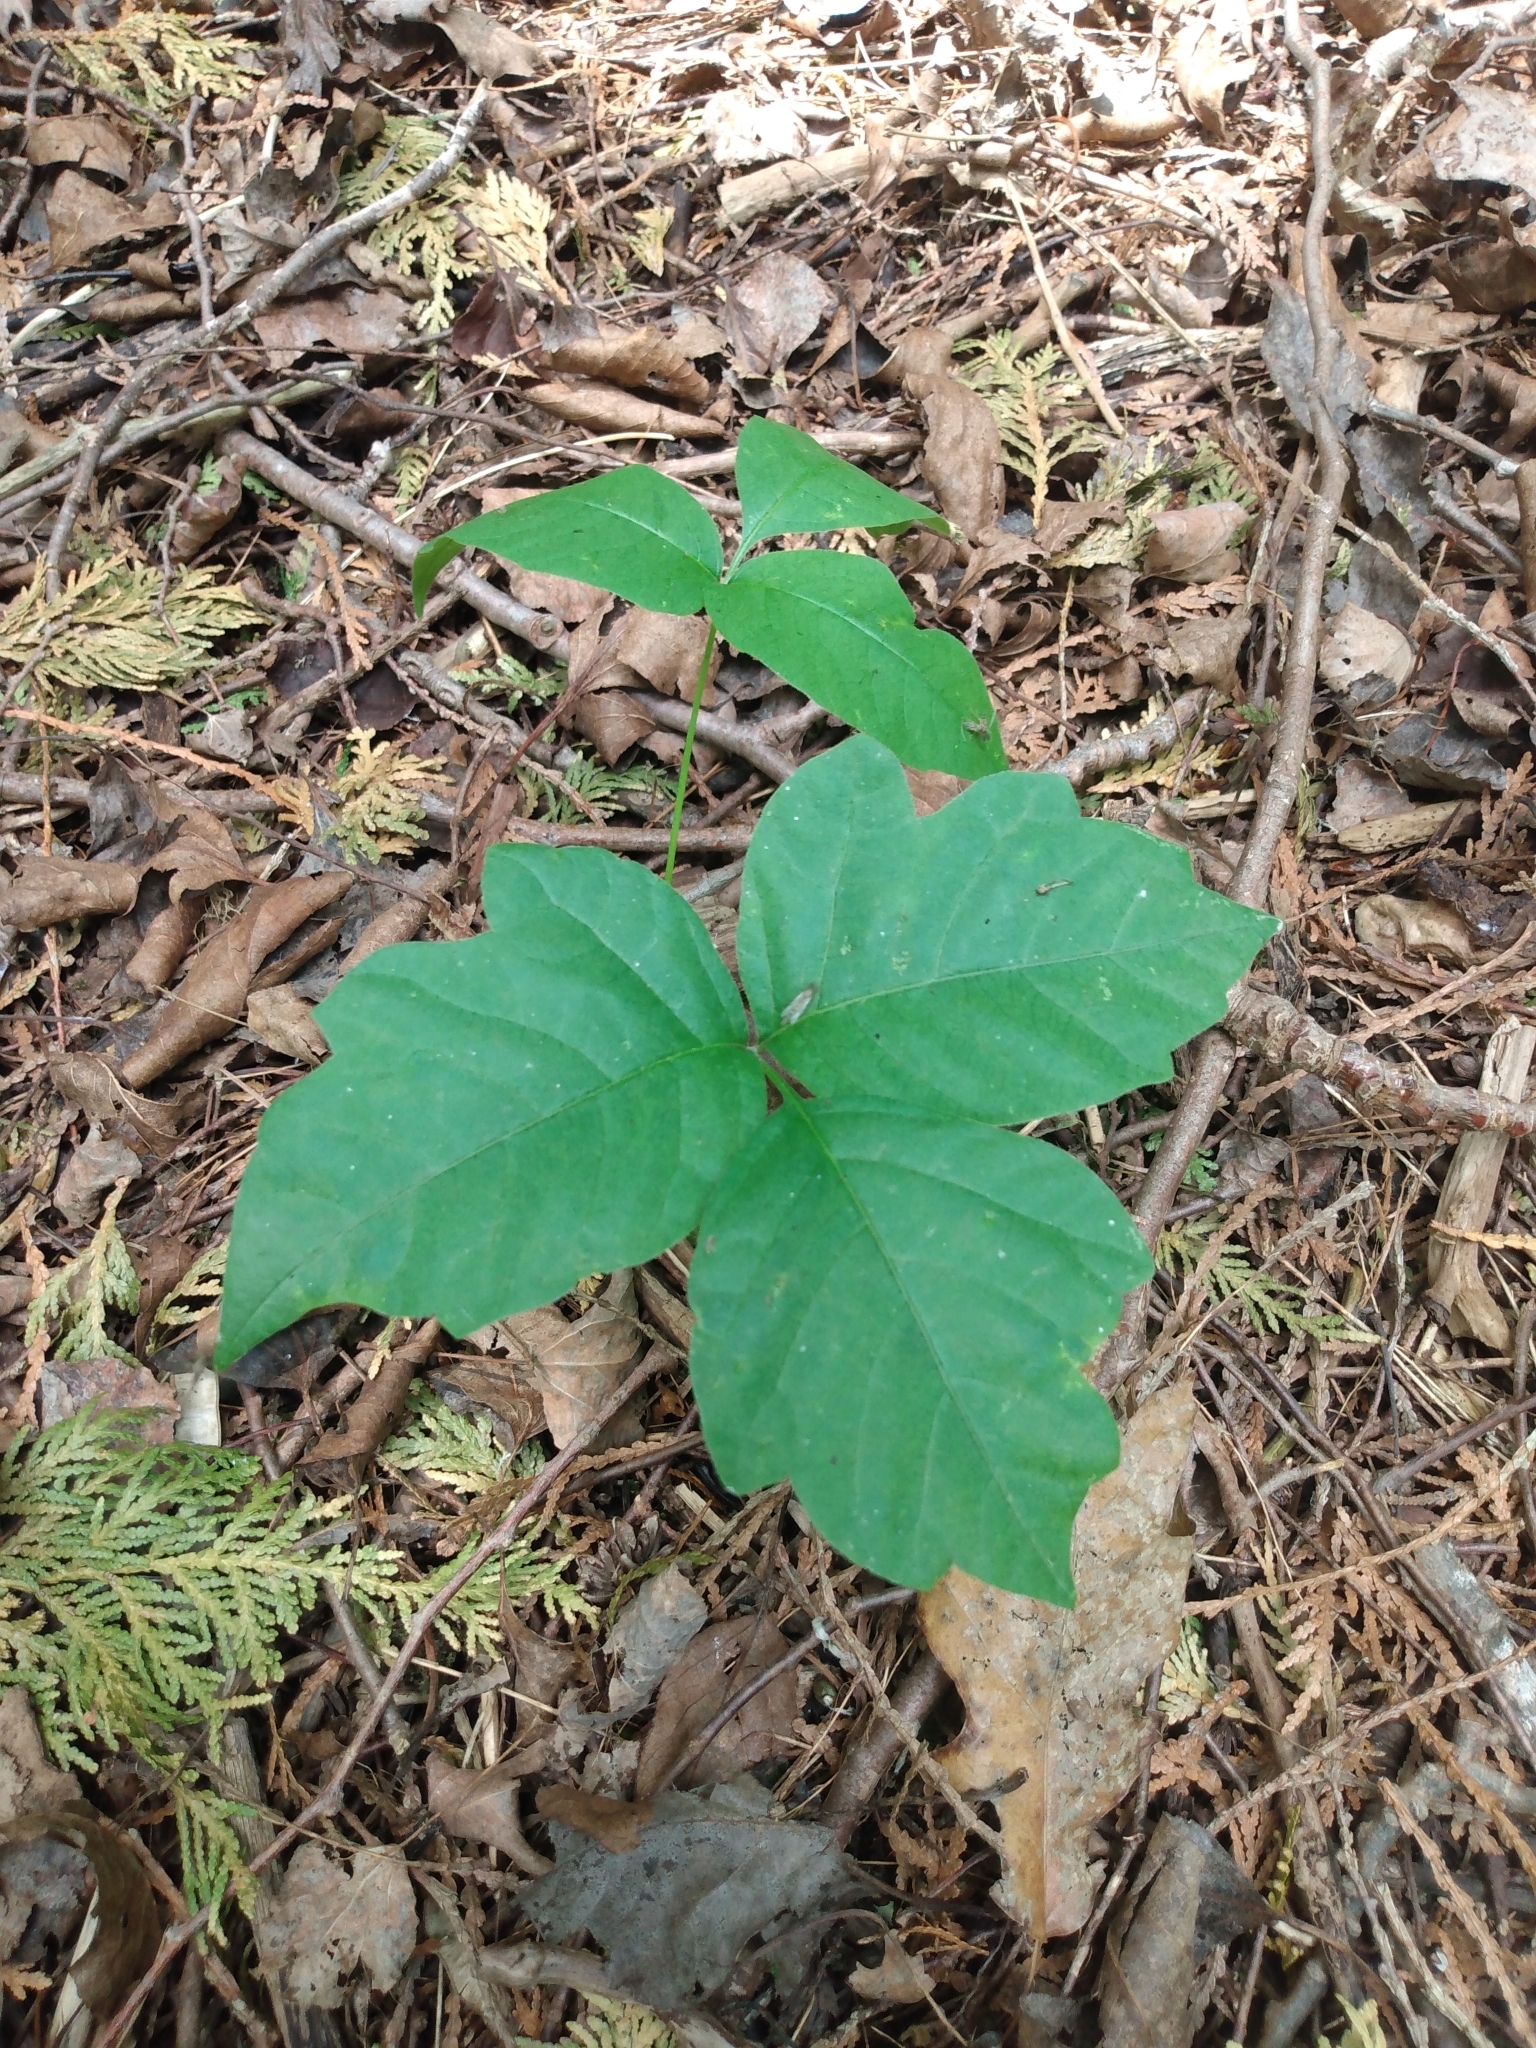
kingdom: Plantae
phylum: Tracheophyta
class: Magnoliopsida
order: Sapindales
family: Anacardiaceae
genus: Toxicodendron
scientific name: Toxicodendron radicans
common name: Poison ivy
